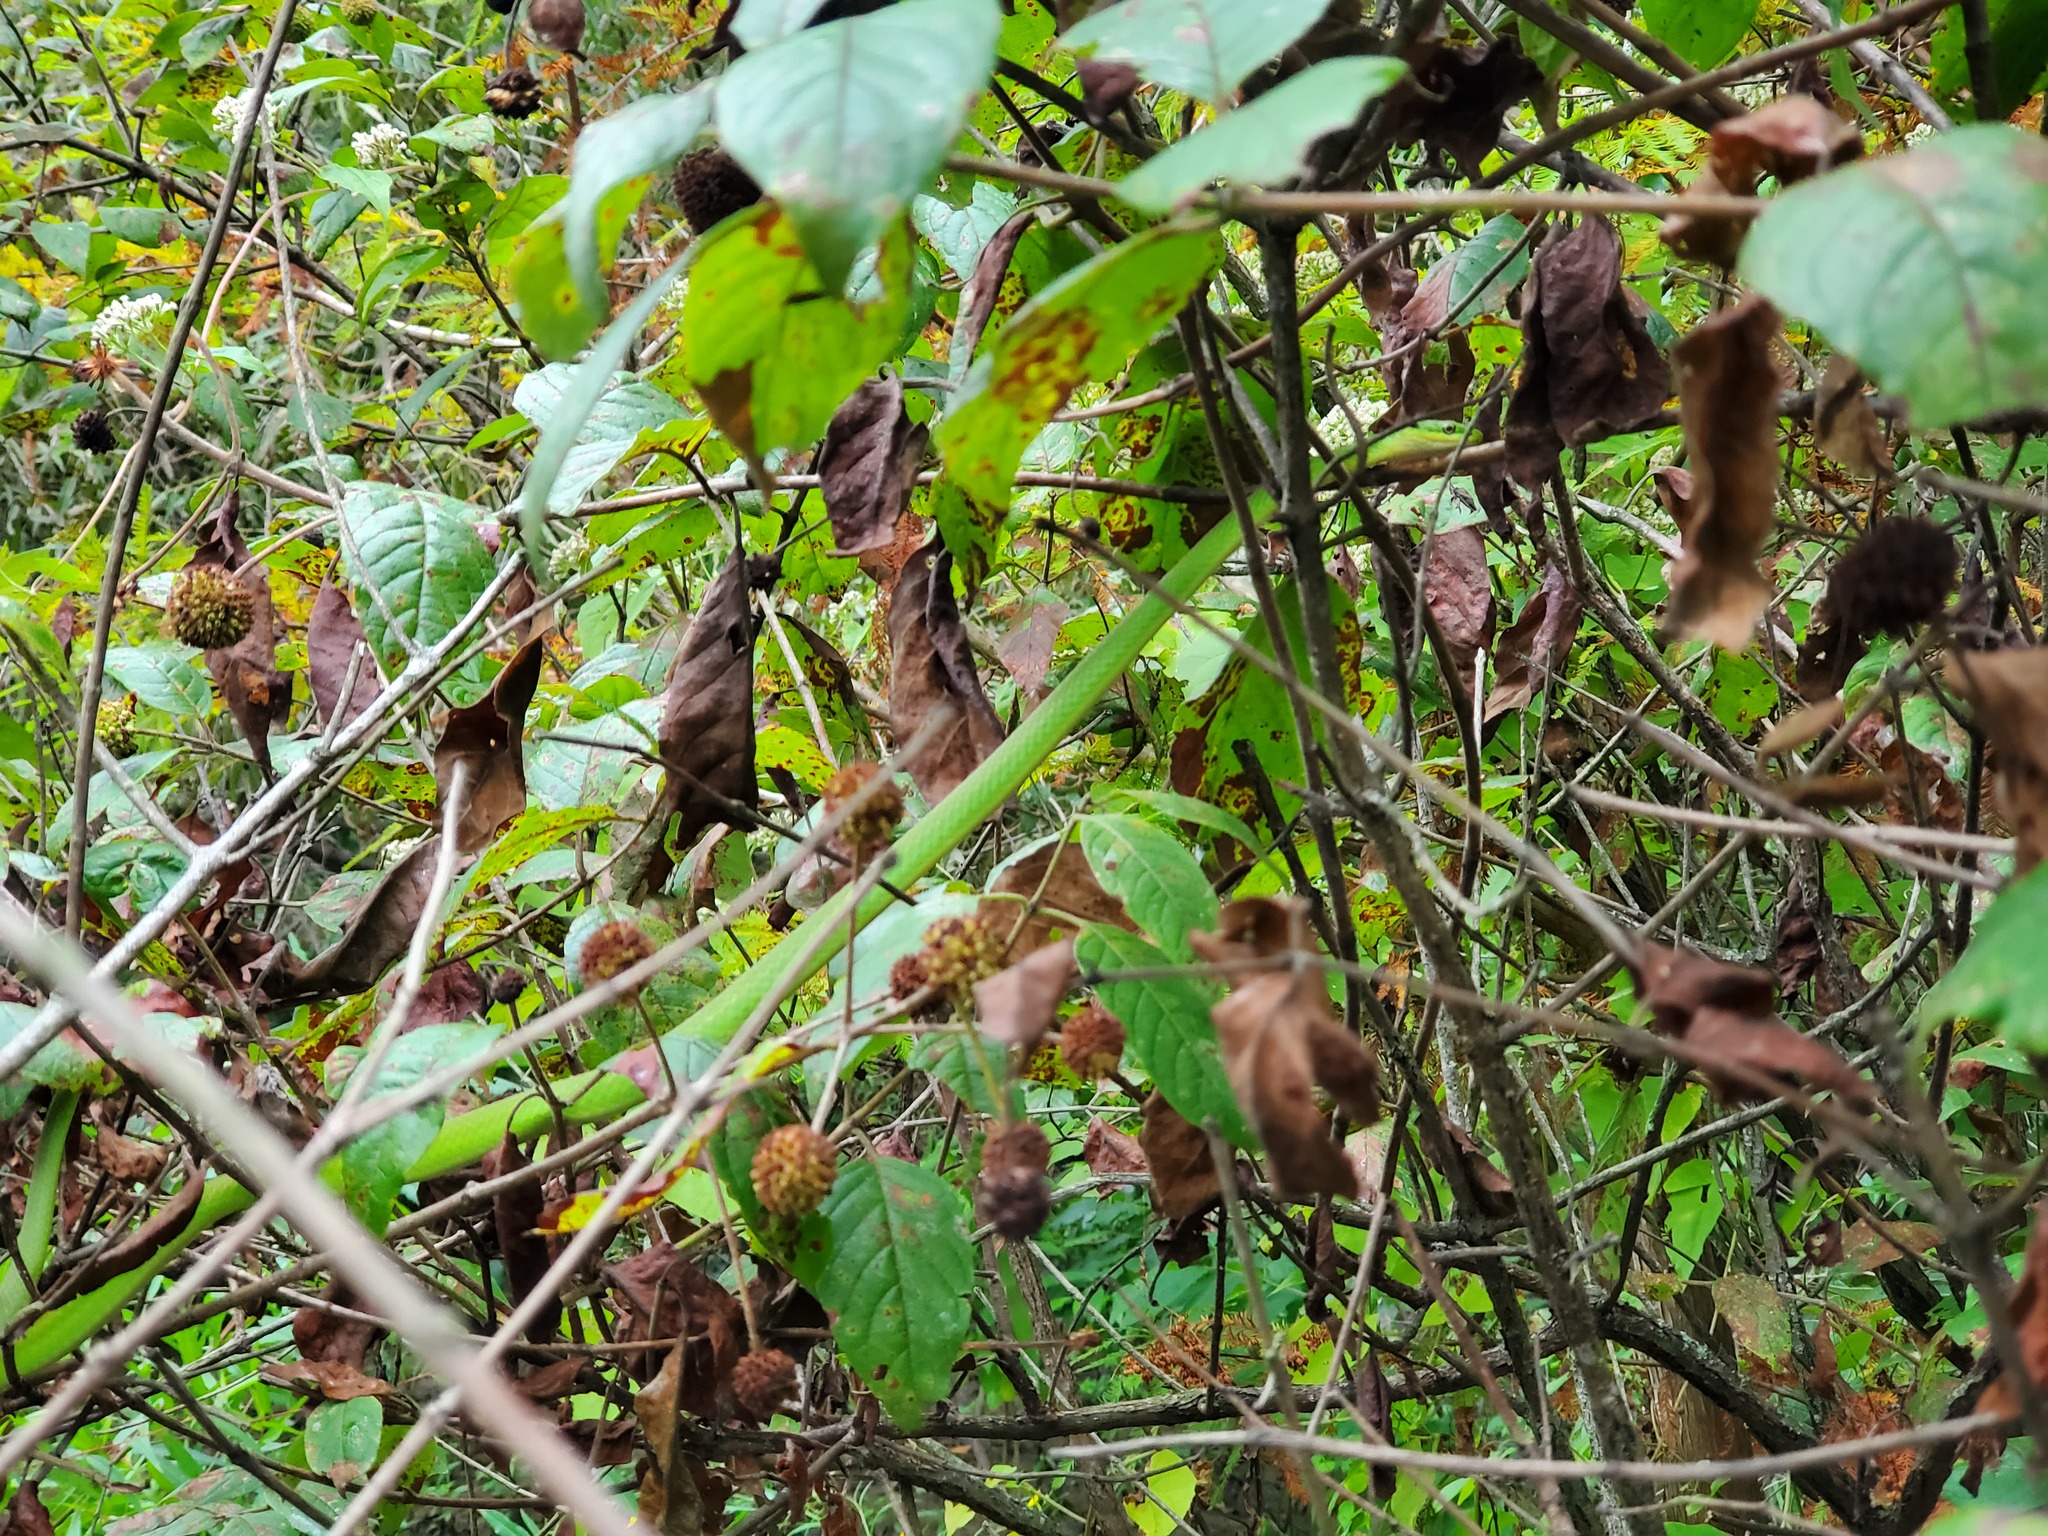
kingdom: Animalia
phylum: Chordata
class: Squamata
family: Colubridae
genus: Opheodrys
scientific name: Opheodrys aestivus
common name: Rough greensnake
